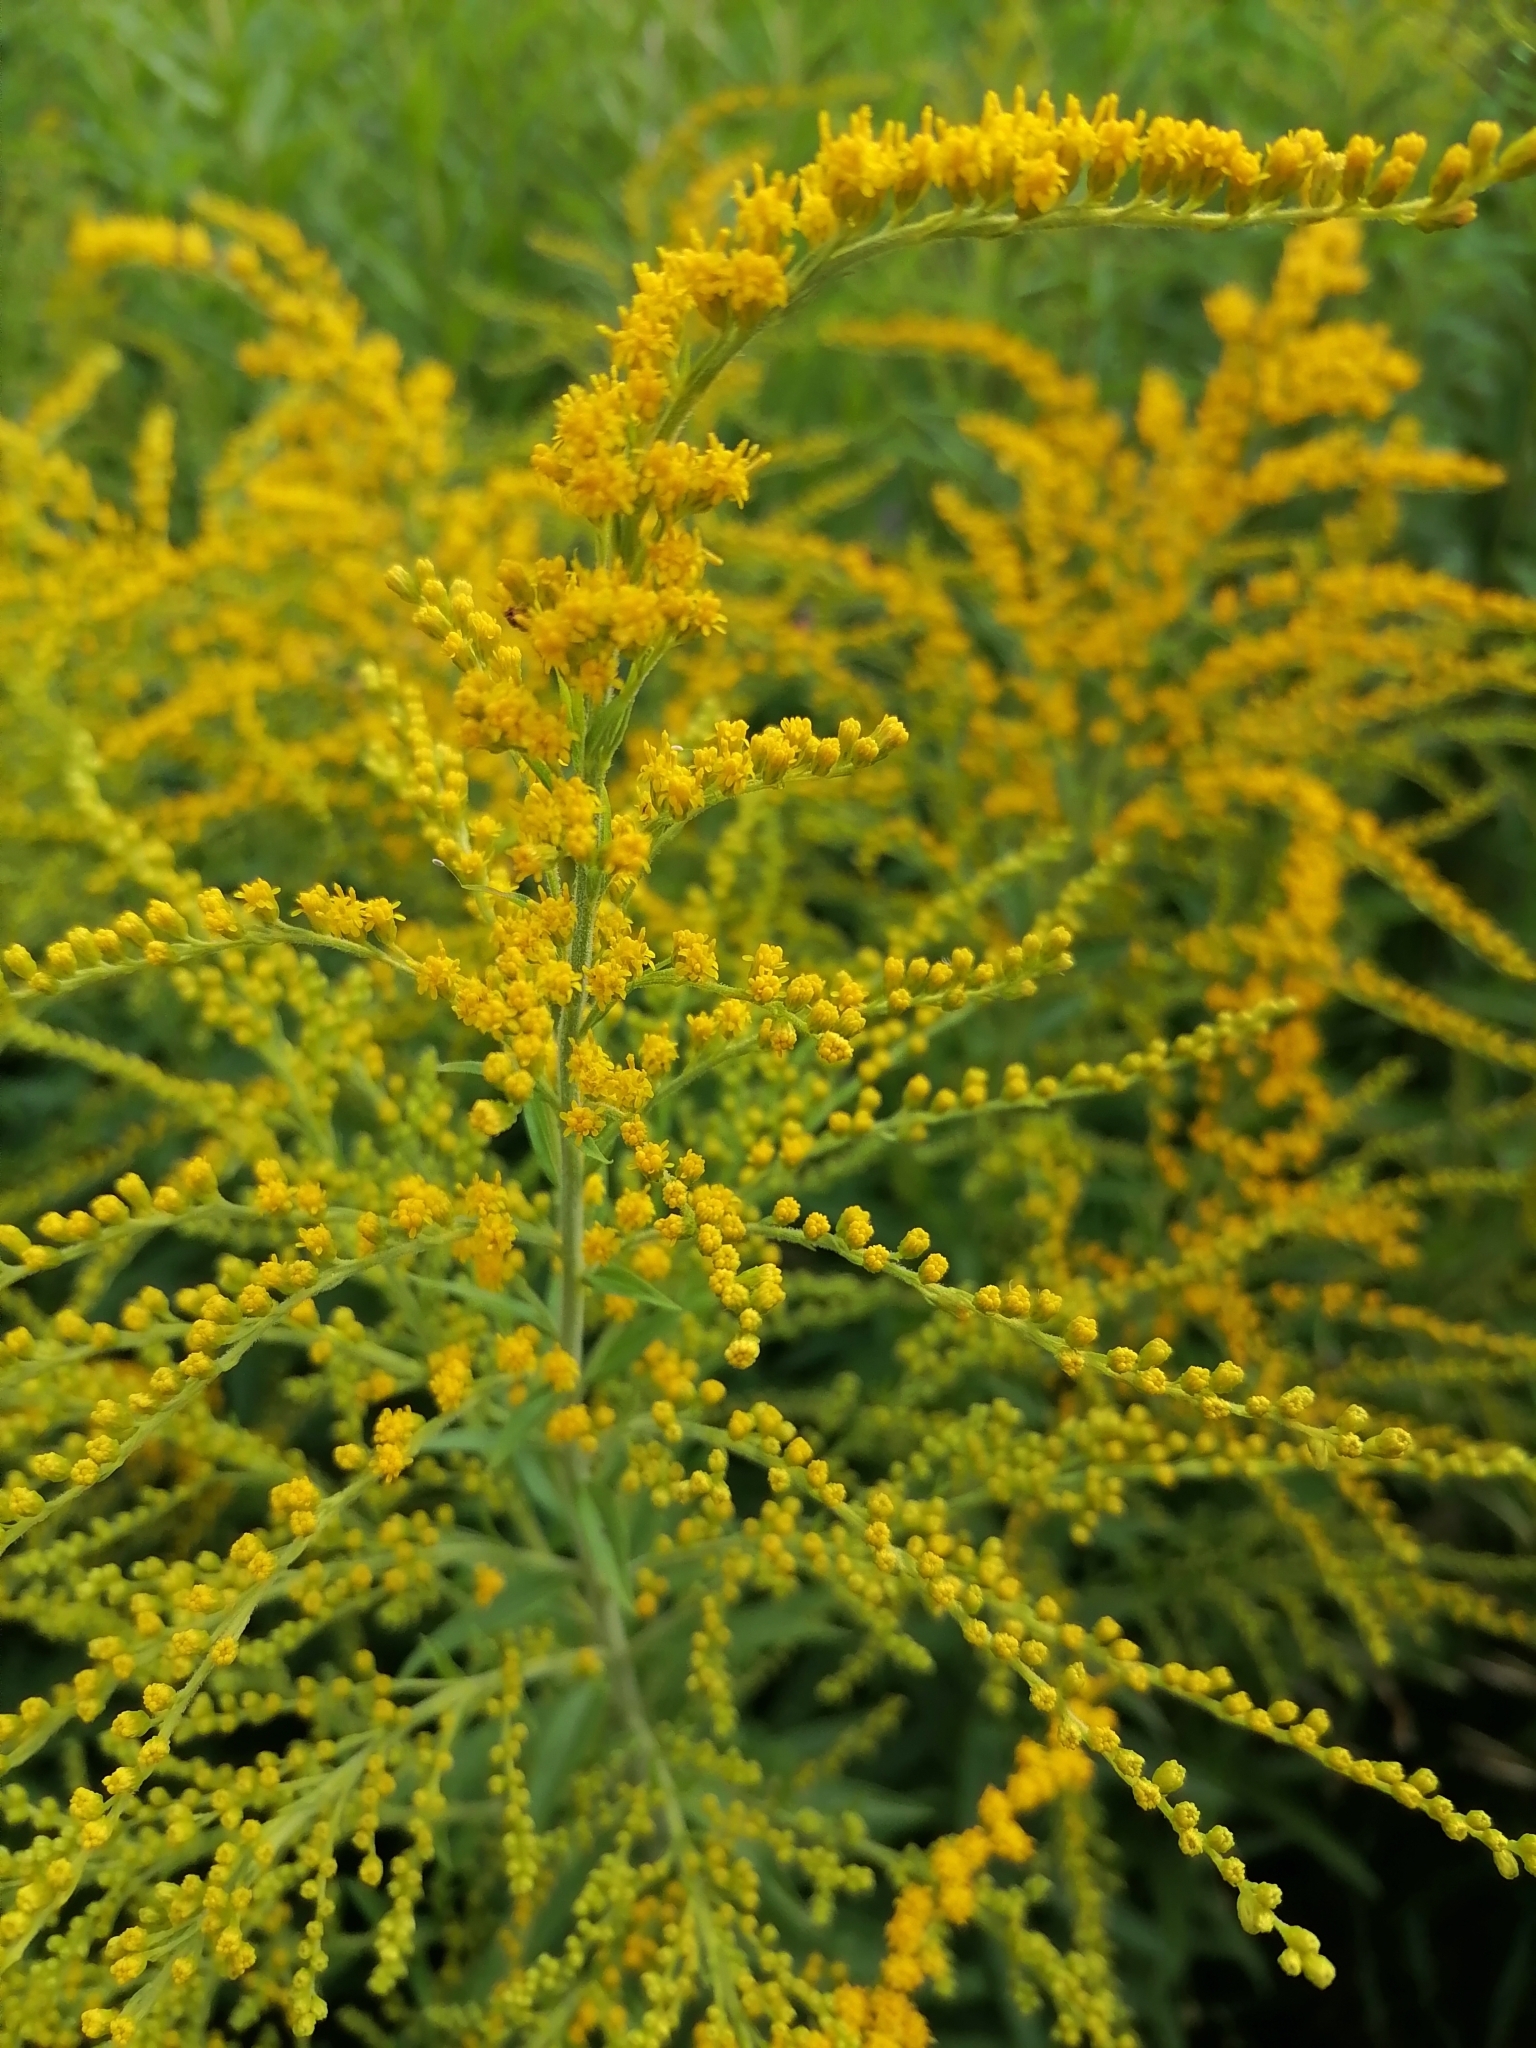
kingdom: Plantae
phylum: Tracheophyta
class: Magnoliopsida
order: Asterales
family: Asteraceae
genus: Solidago
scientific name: Solidago canadensis
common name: Canada goldenrod
